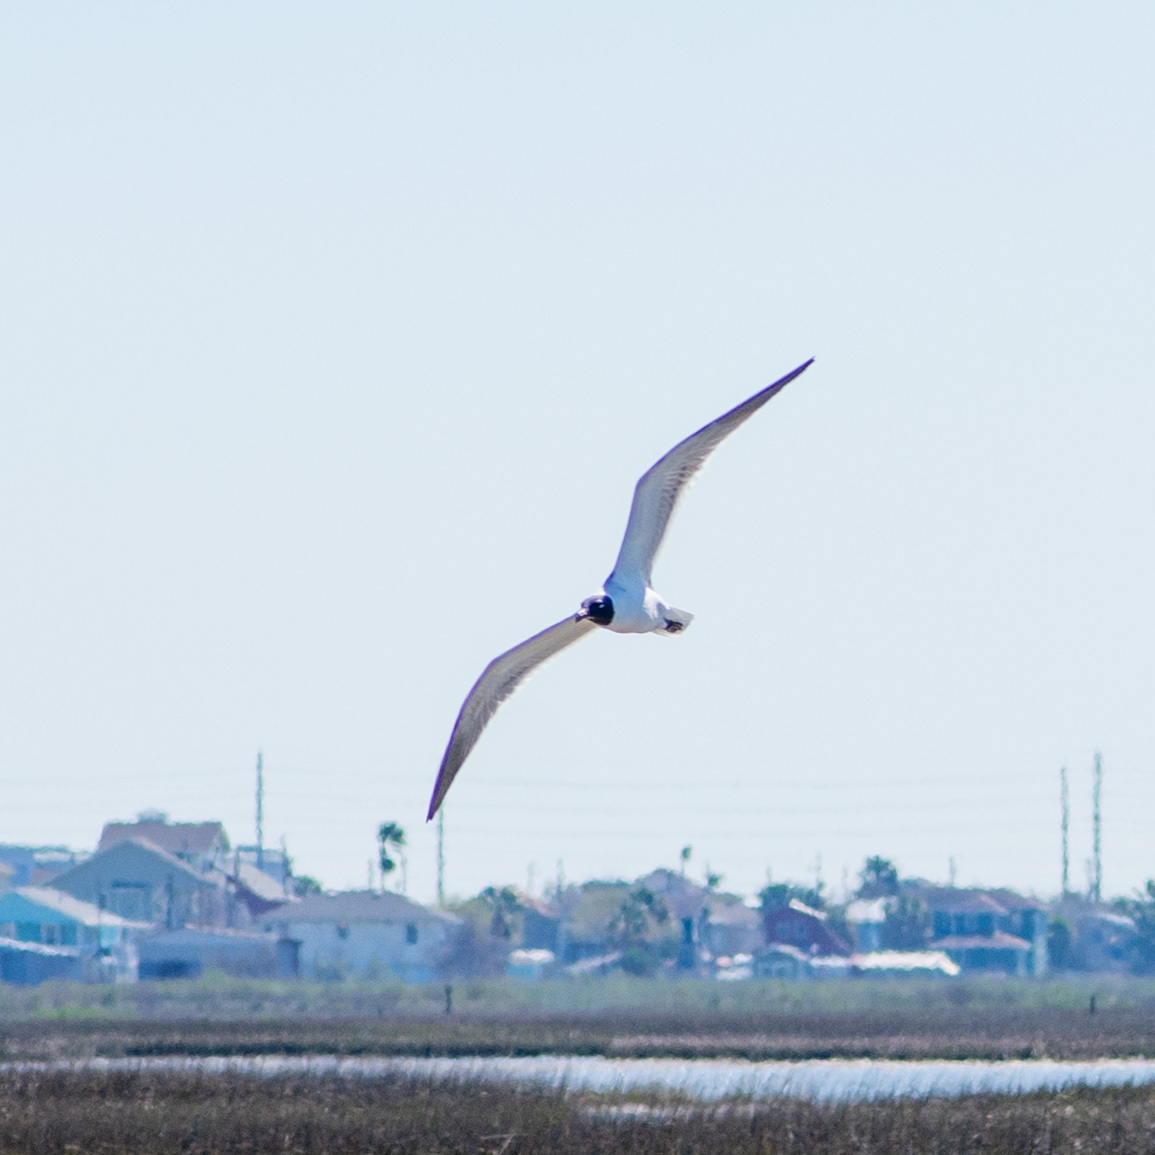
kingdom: Animalia
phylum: Chordata
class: Aves
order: Charadriiformes
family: Laridae
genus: Leucophaeus
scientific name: Leucophaeus atricilla
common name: Laughing gull
